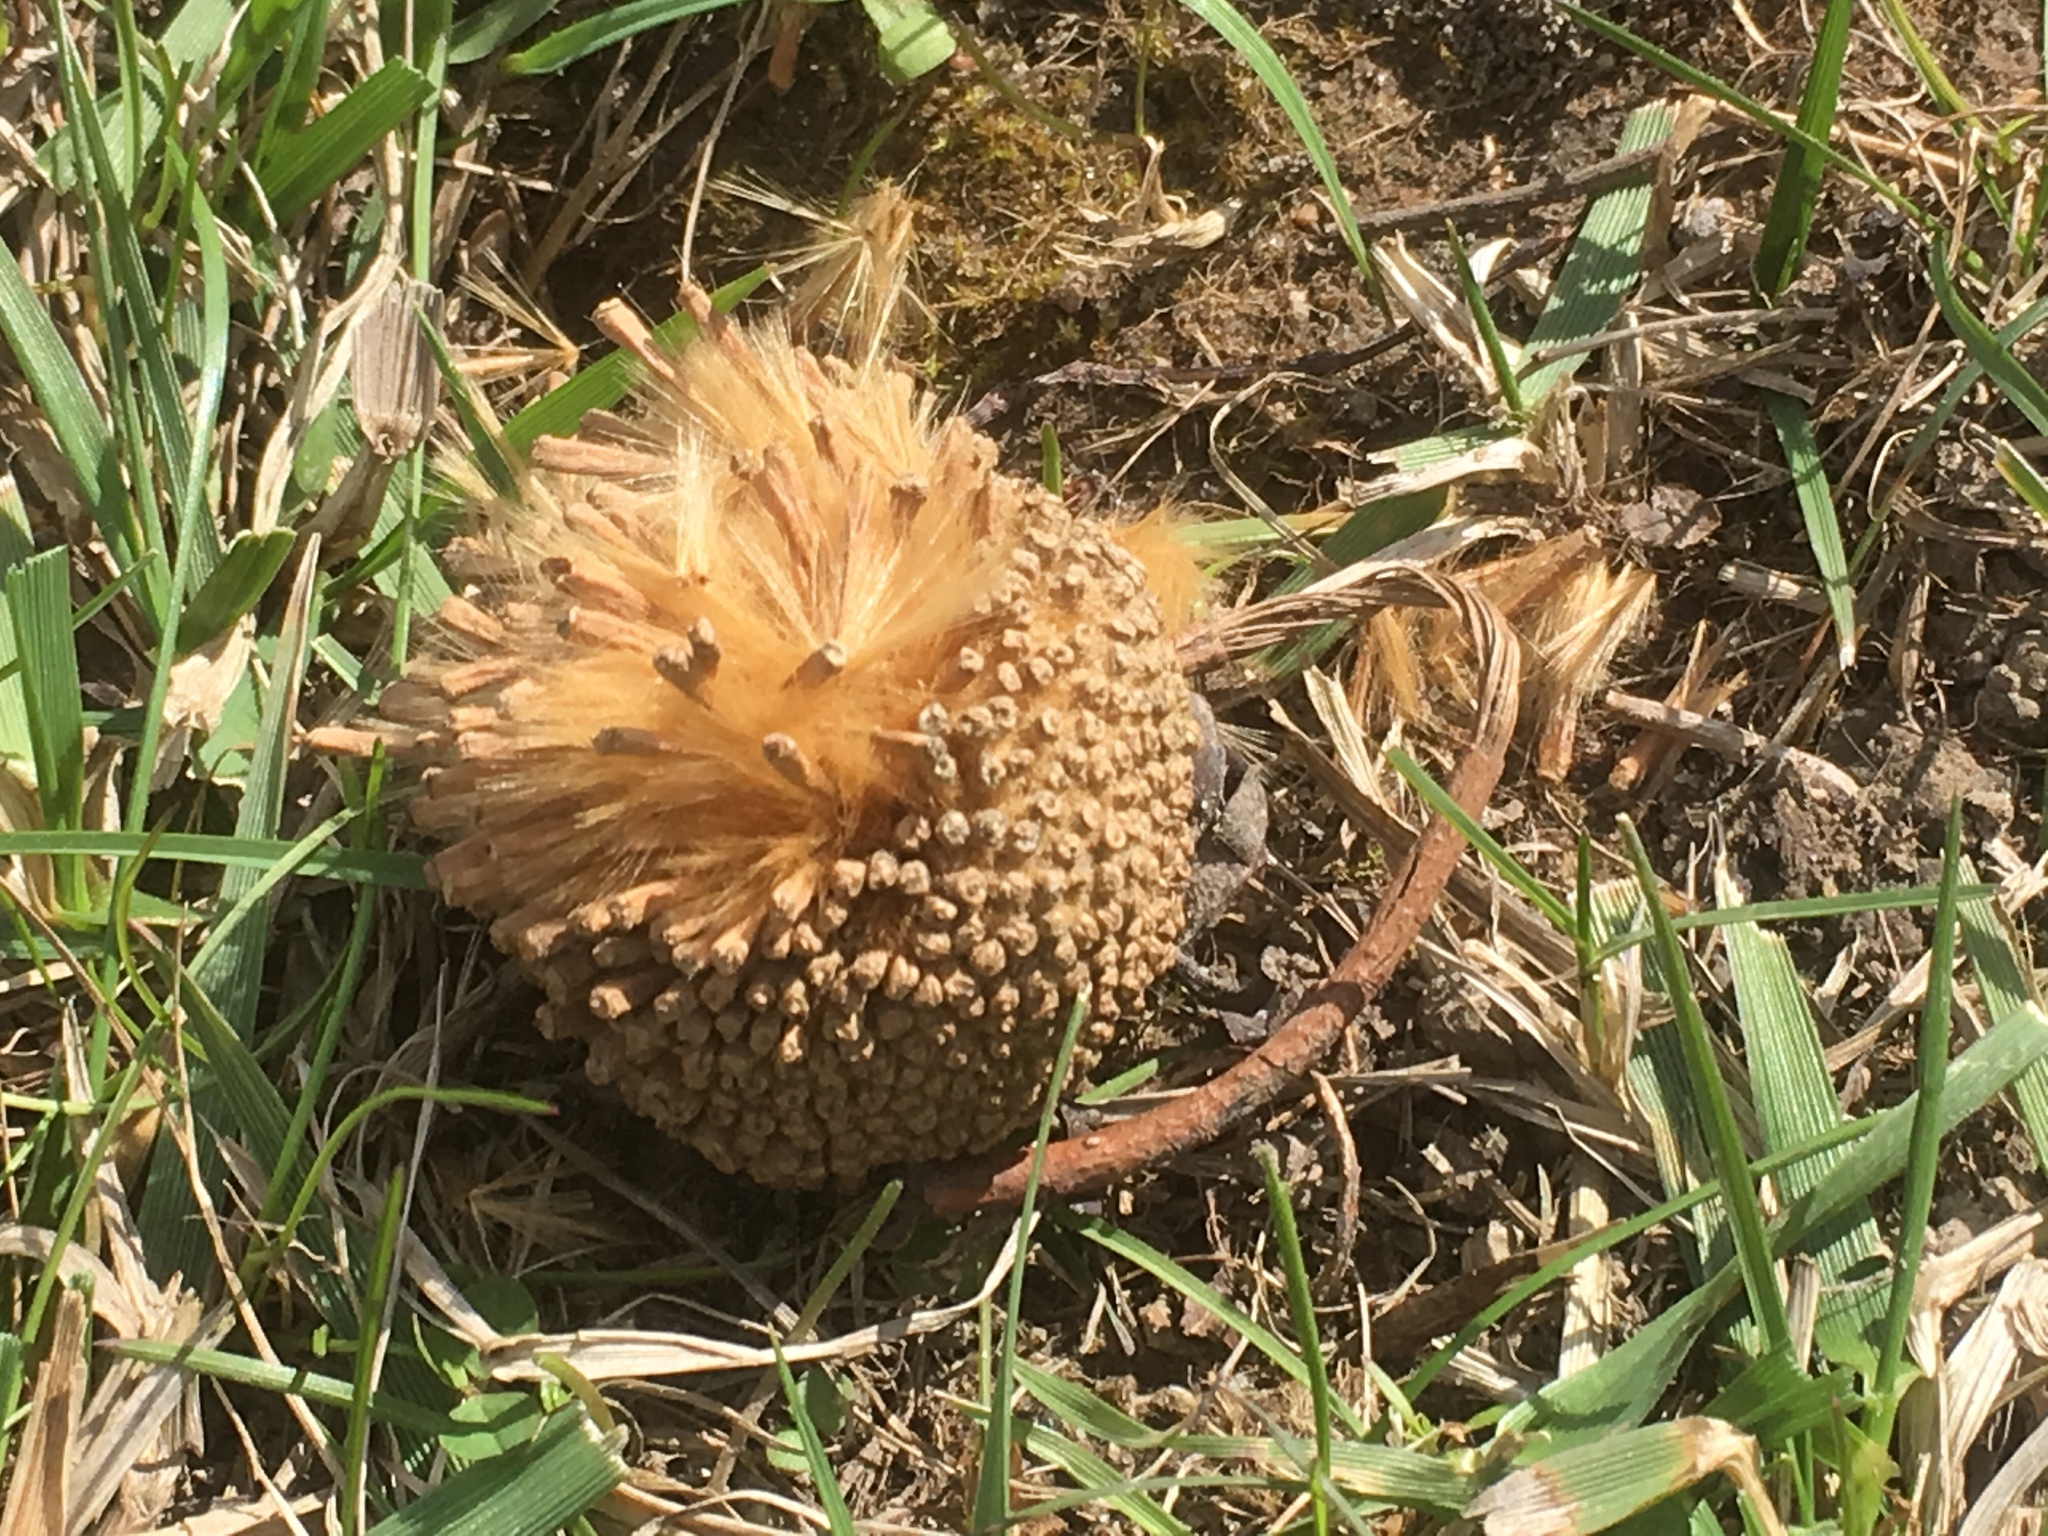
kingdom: Plantae
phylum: Tracheophyta
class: Magnoliopsida
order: Proteales
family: Platanaceae
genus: Platanus
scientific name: Platanus occidentalis
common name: American sycamore
